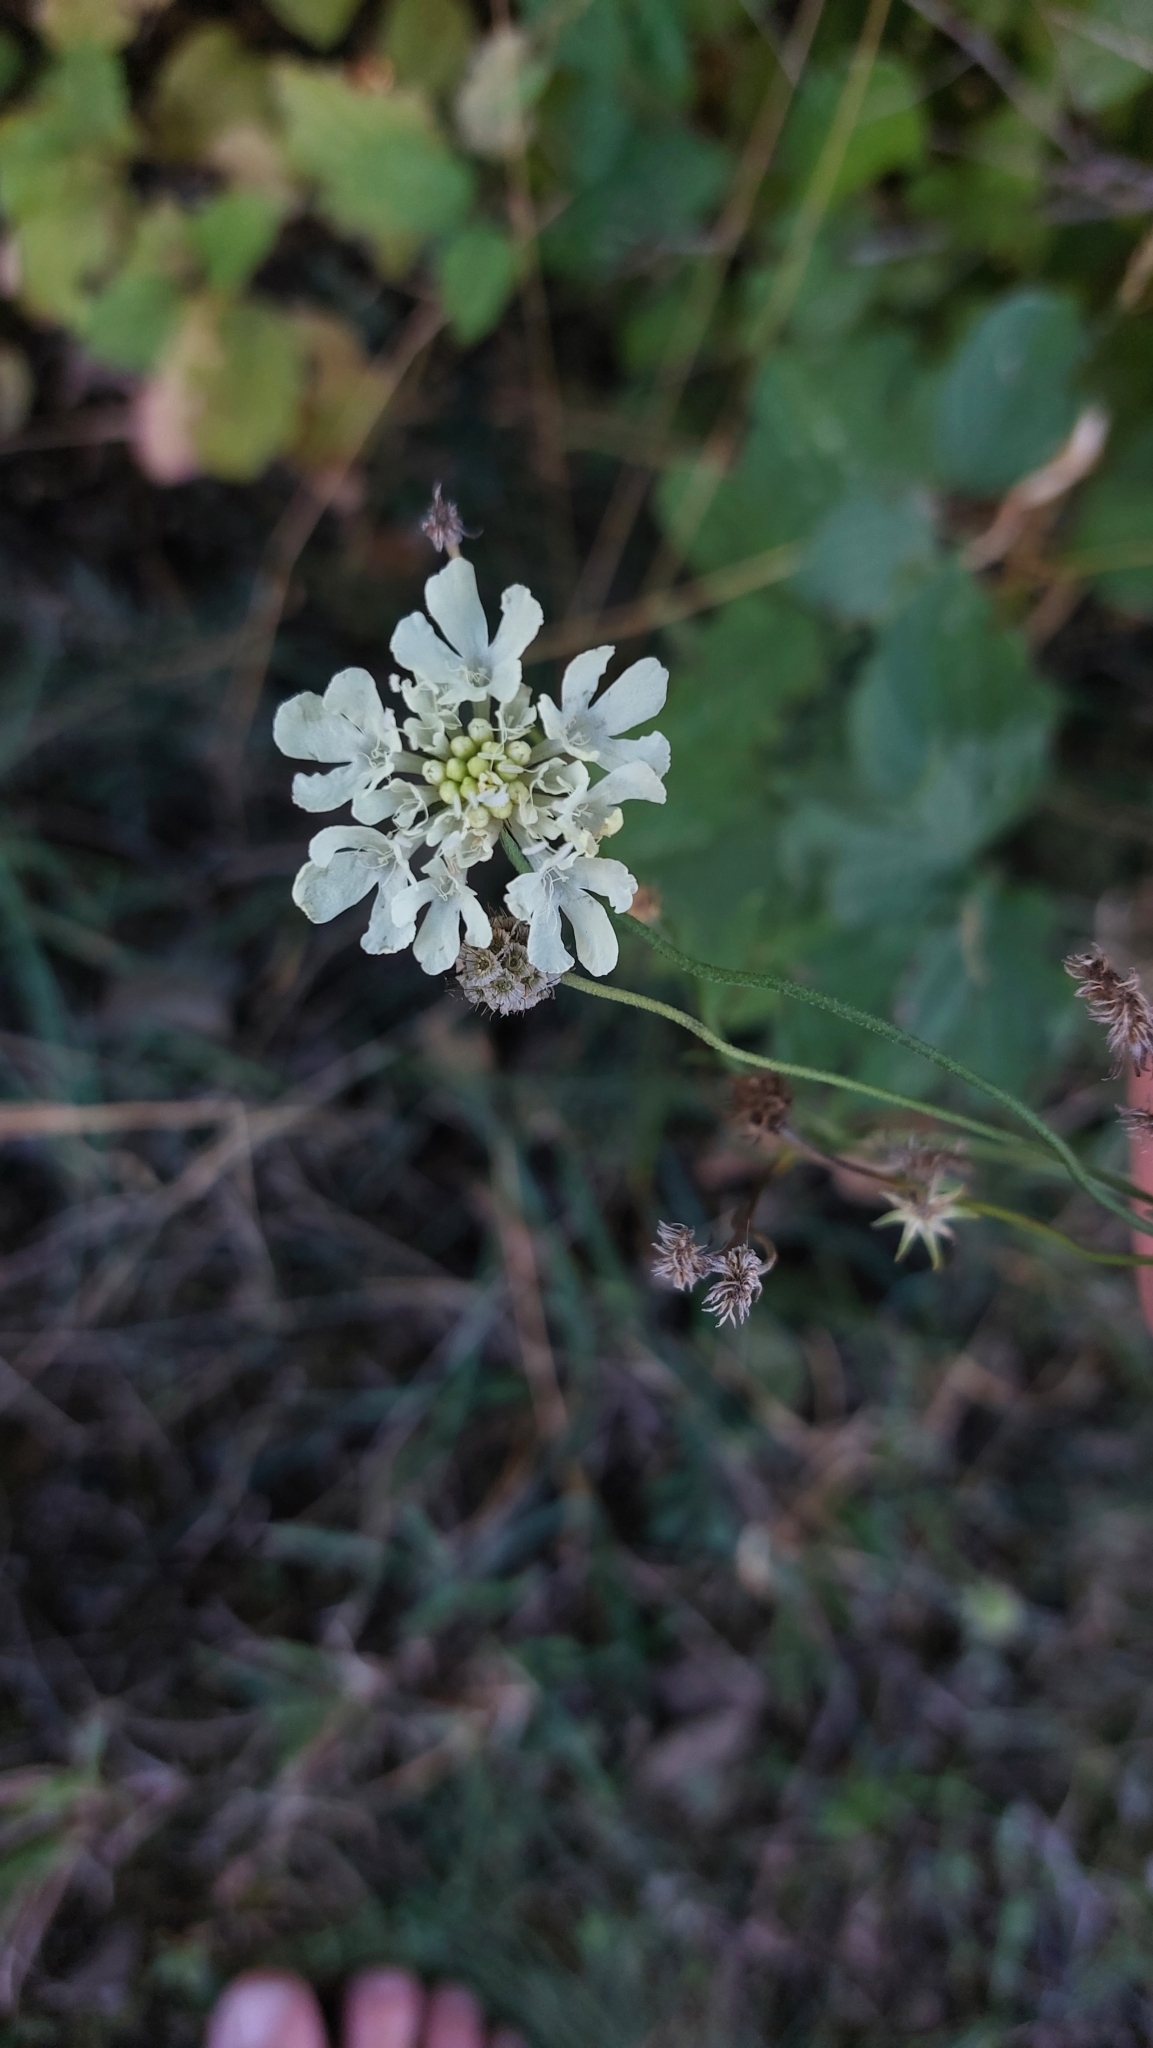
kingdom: Plantae
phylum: Tracheophyta
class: Magnoliopsida
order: Dipsacales
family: Caprifoliaceae
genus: Scabiosa
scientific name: Scabiosa ochroleuca
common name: Cream pincushions
